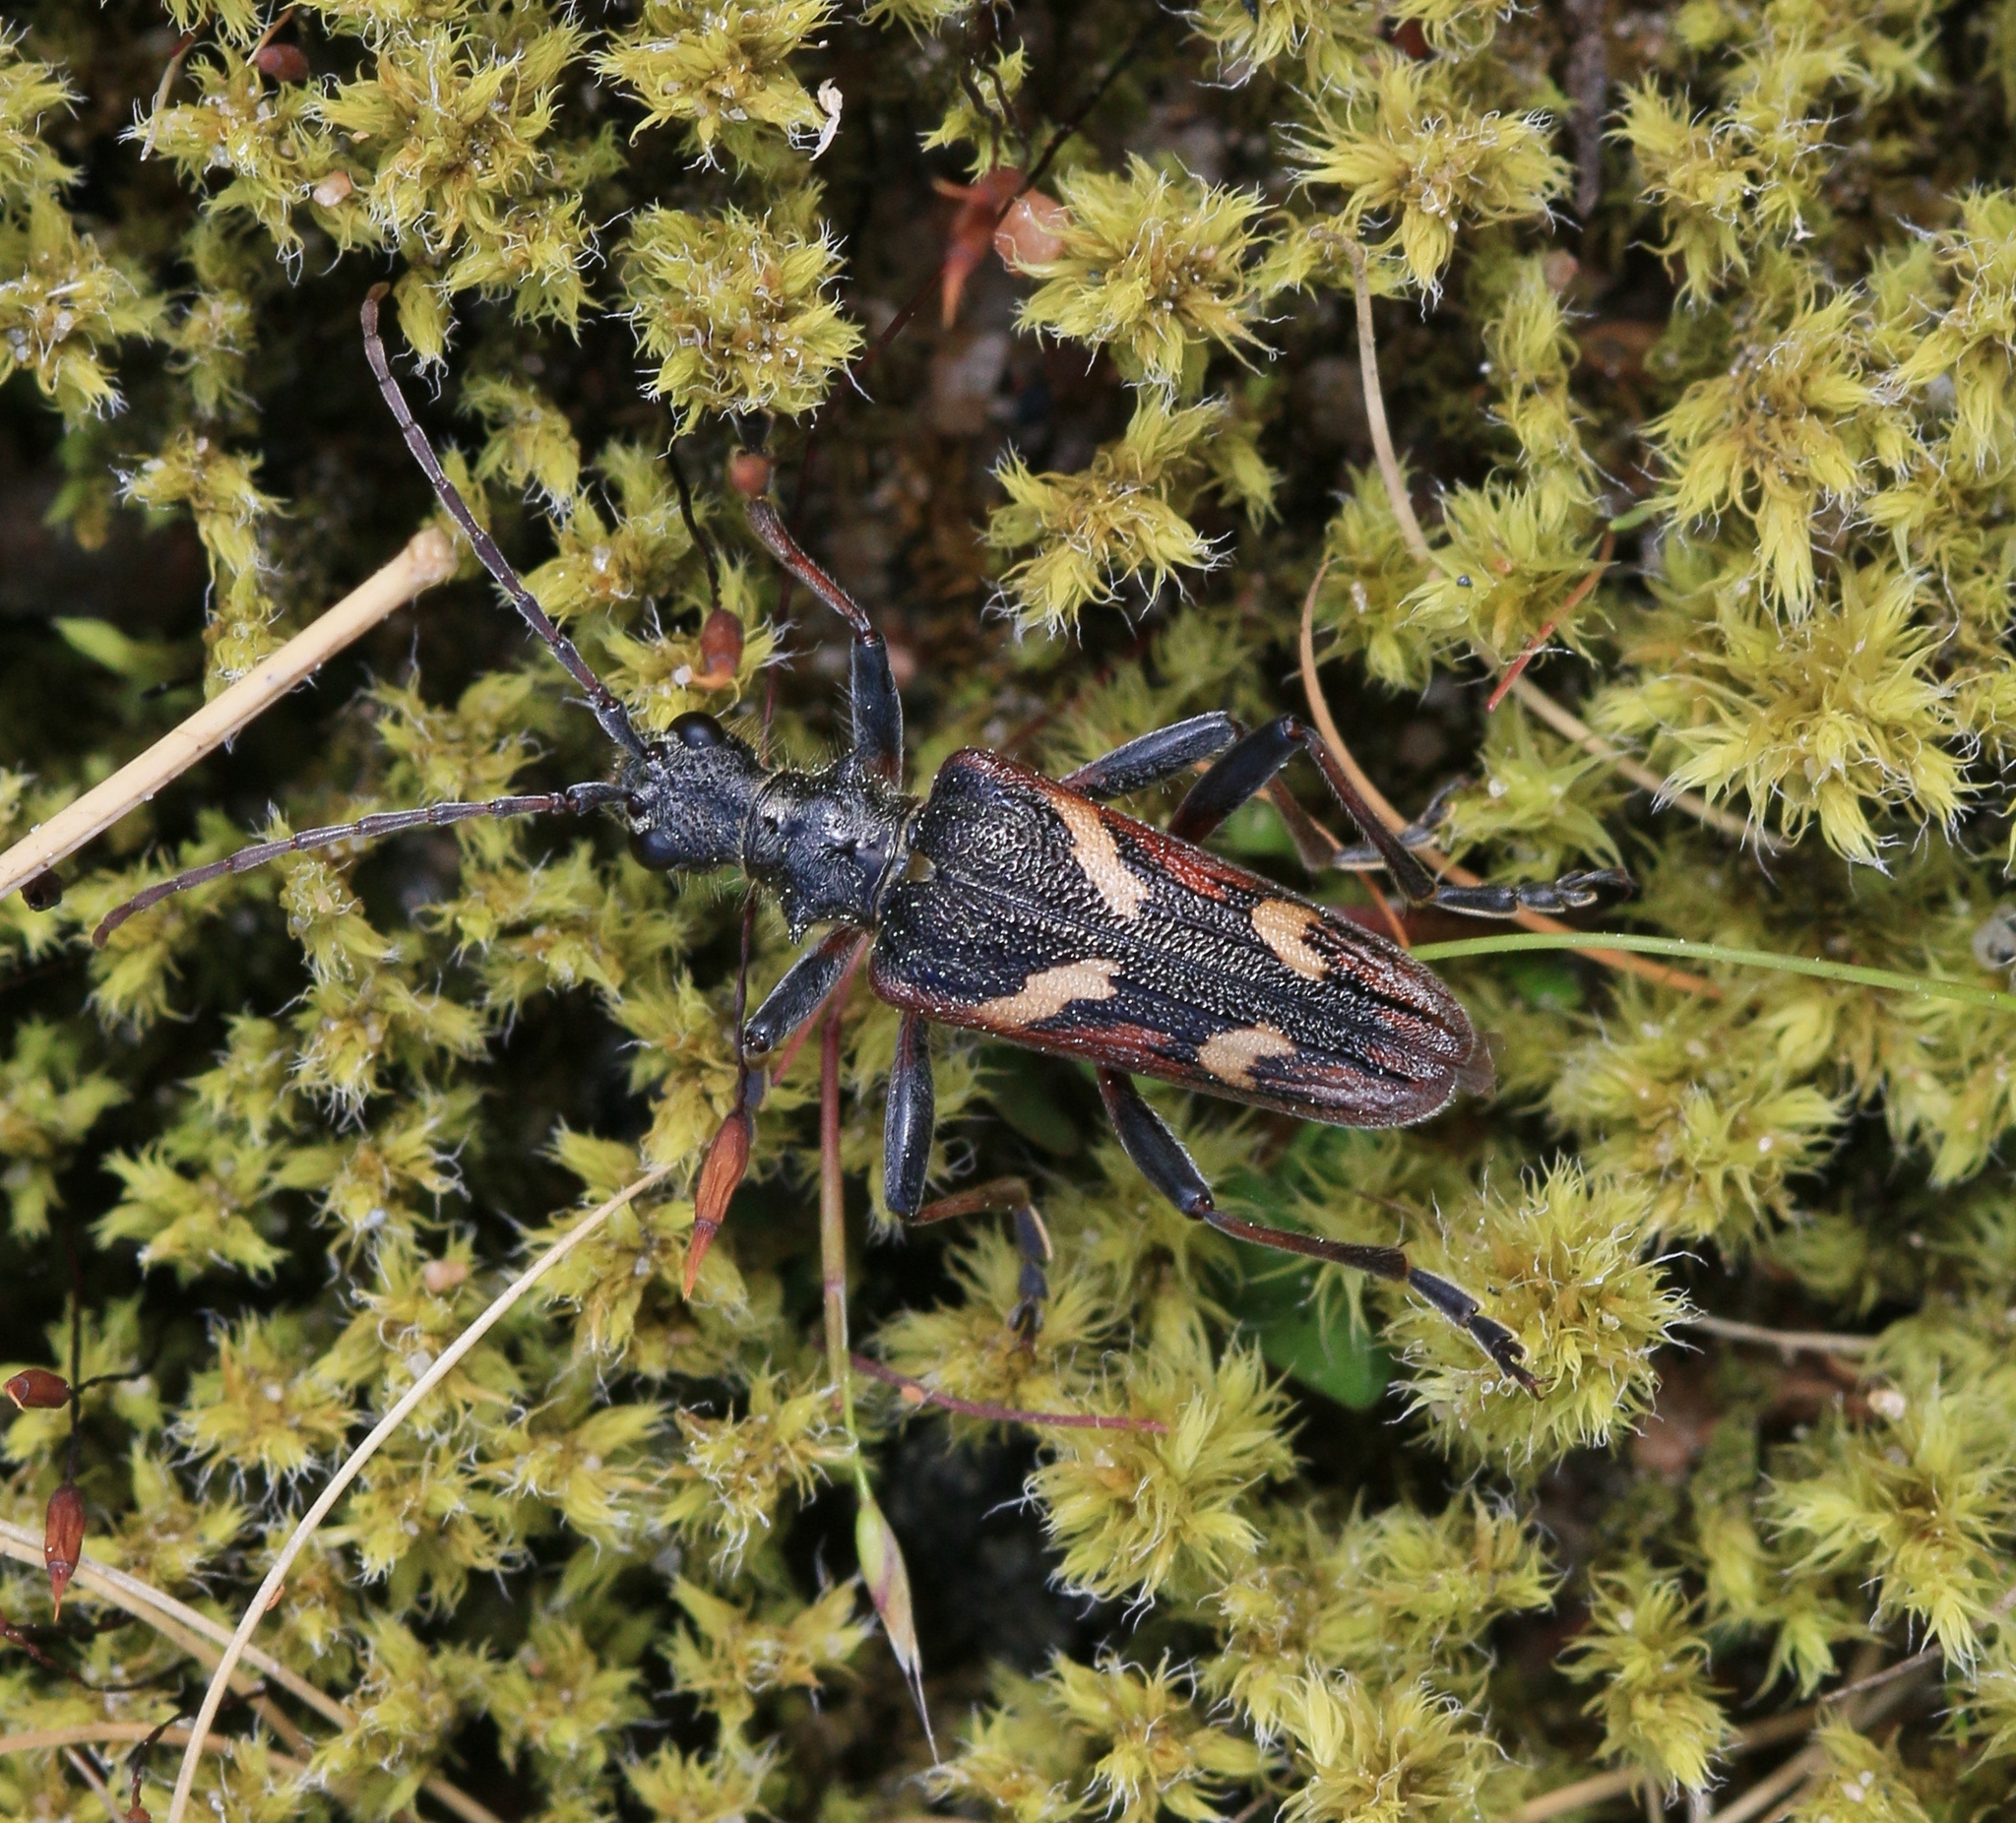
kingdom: Animalia
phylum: Arthropoda
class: Insecta
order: Coleoptera
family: Cerambycidae
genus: Rhagium
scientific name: Rhagium bifasciatum
